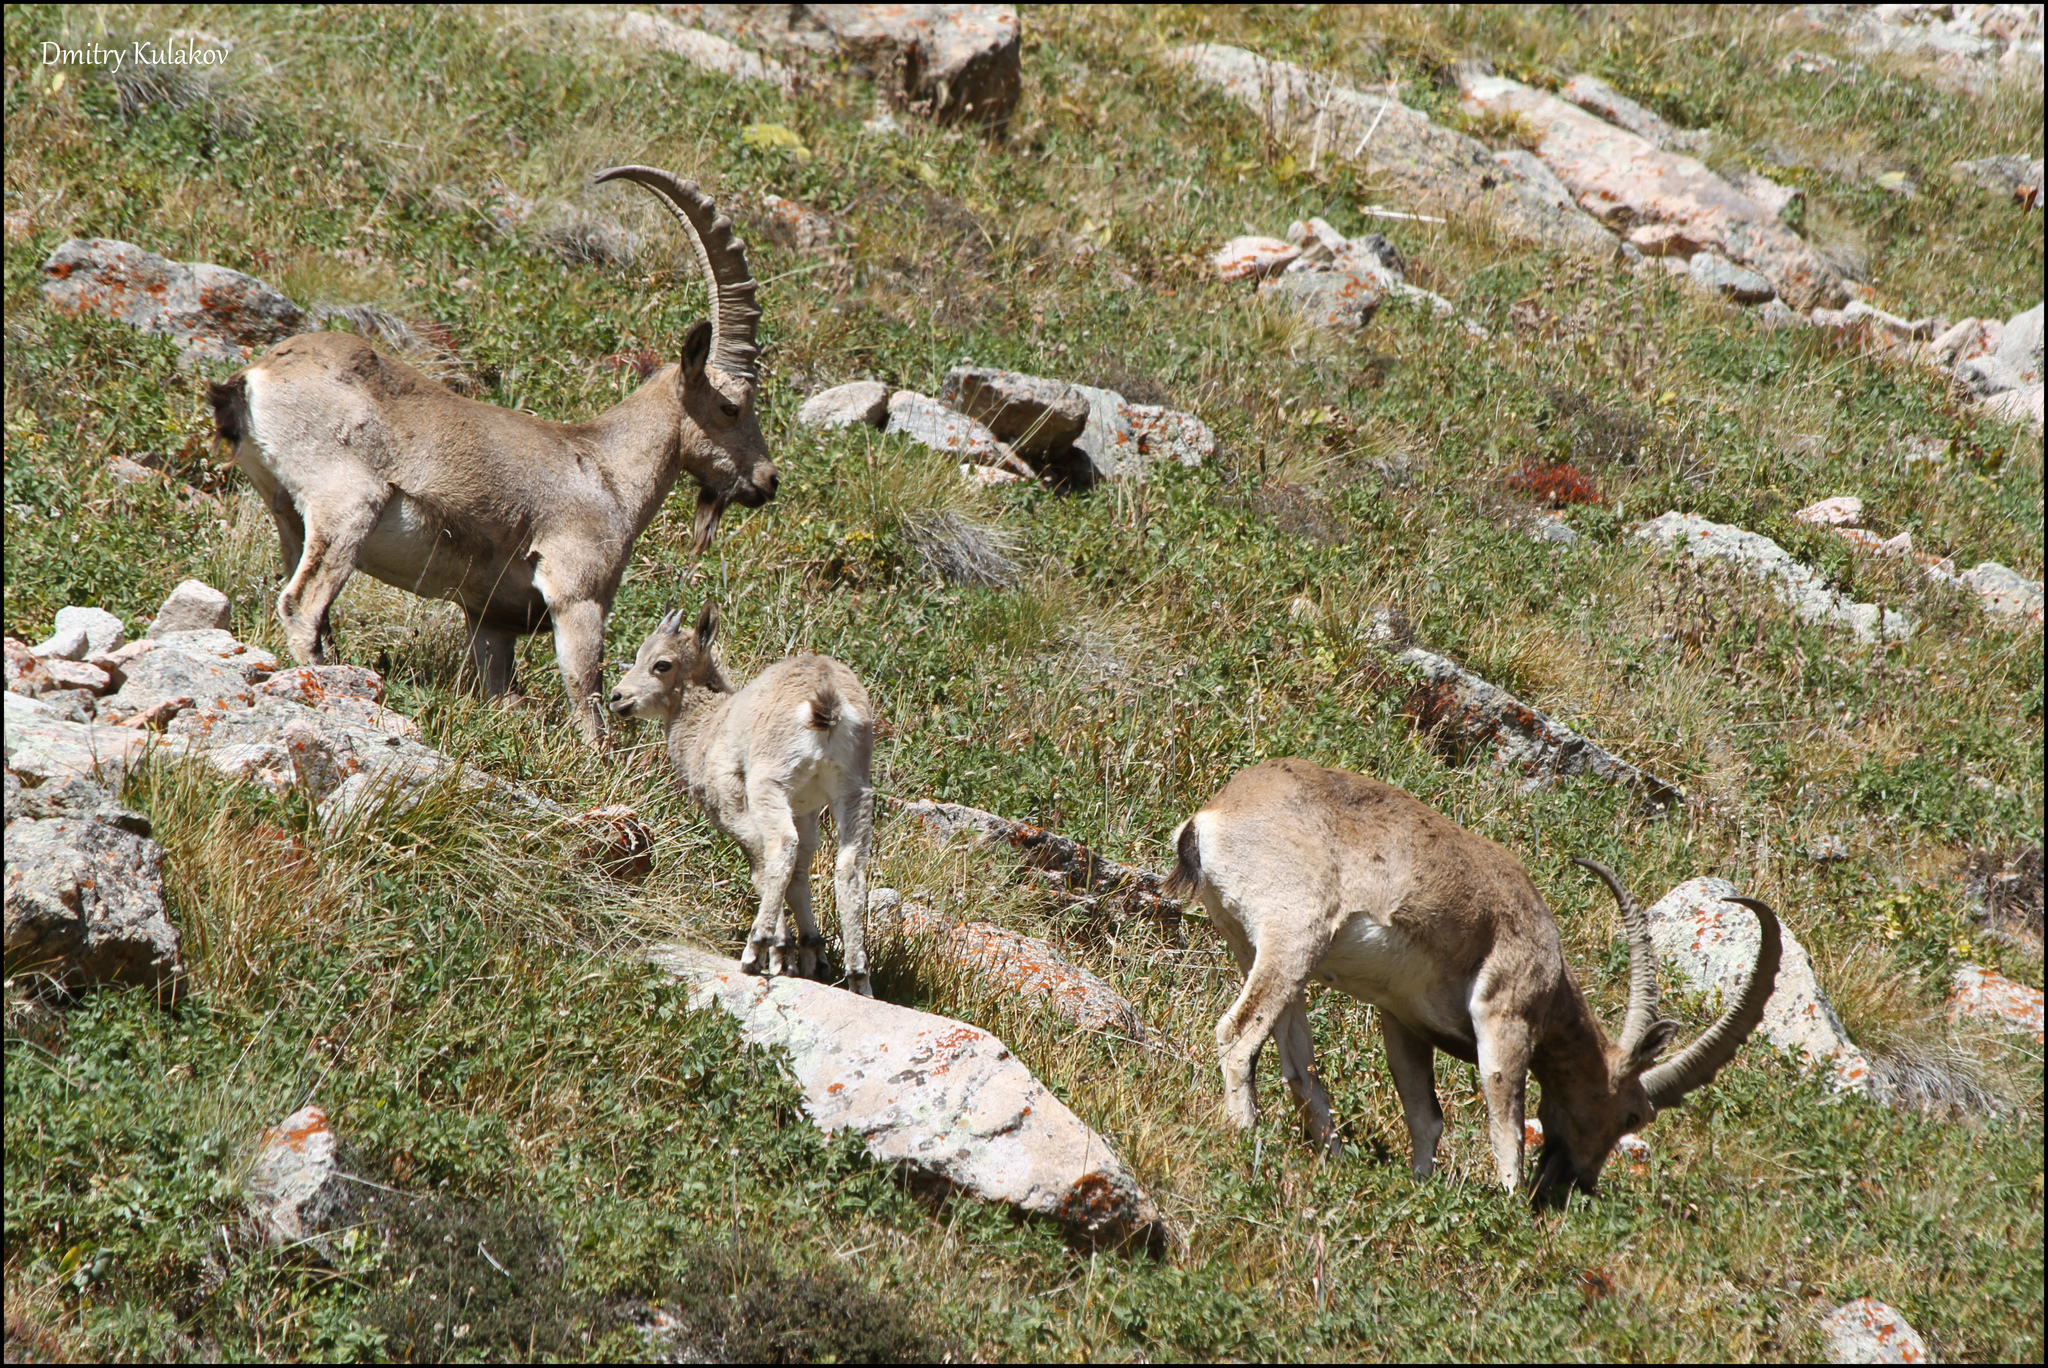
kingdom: Animalia
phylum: Chordata
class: Mammalia
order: Artiodactyla
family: Bovidae
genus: Capra
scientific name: Capra sibirica
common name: Siberian ibex
